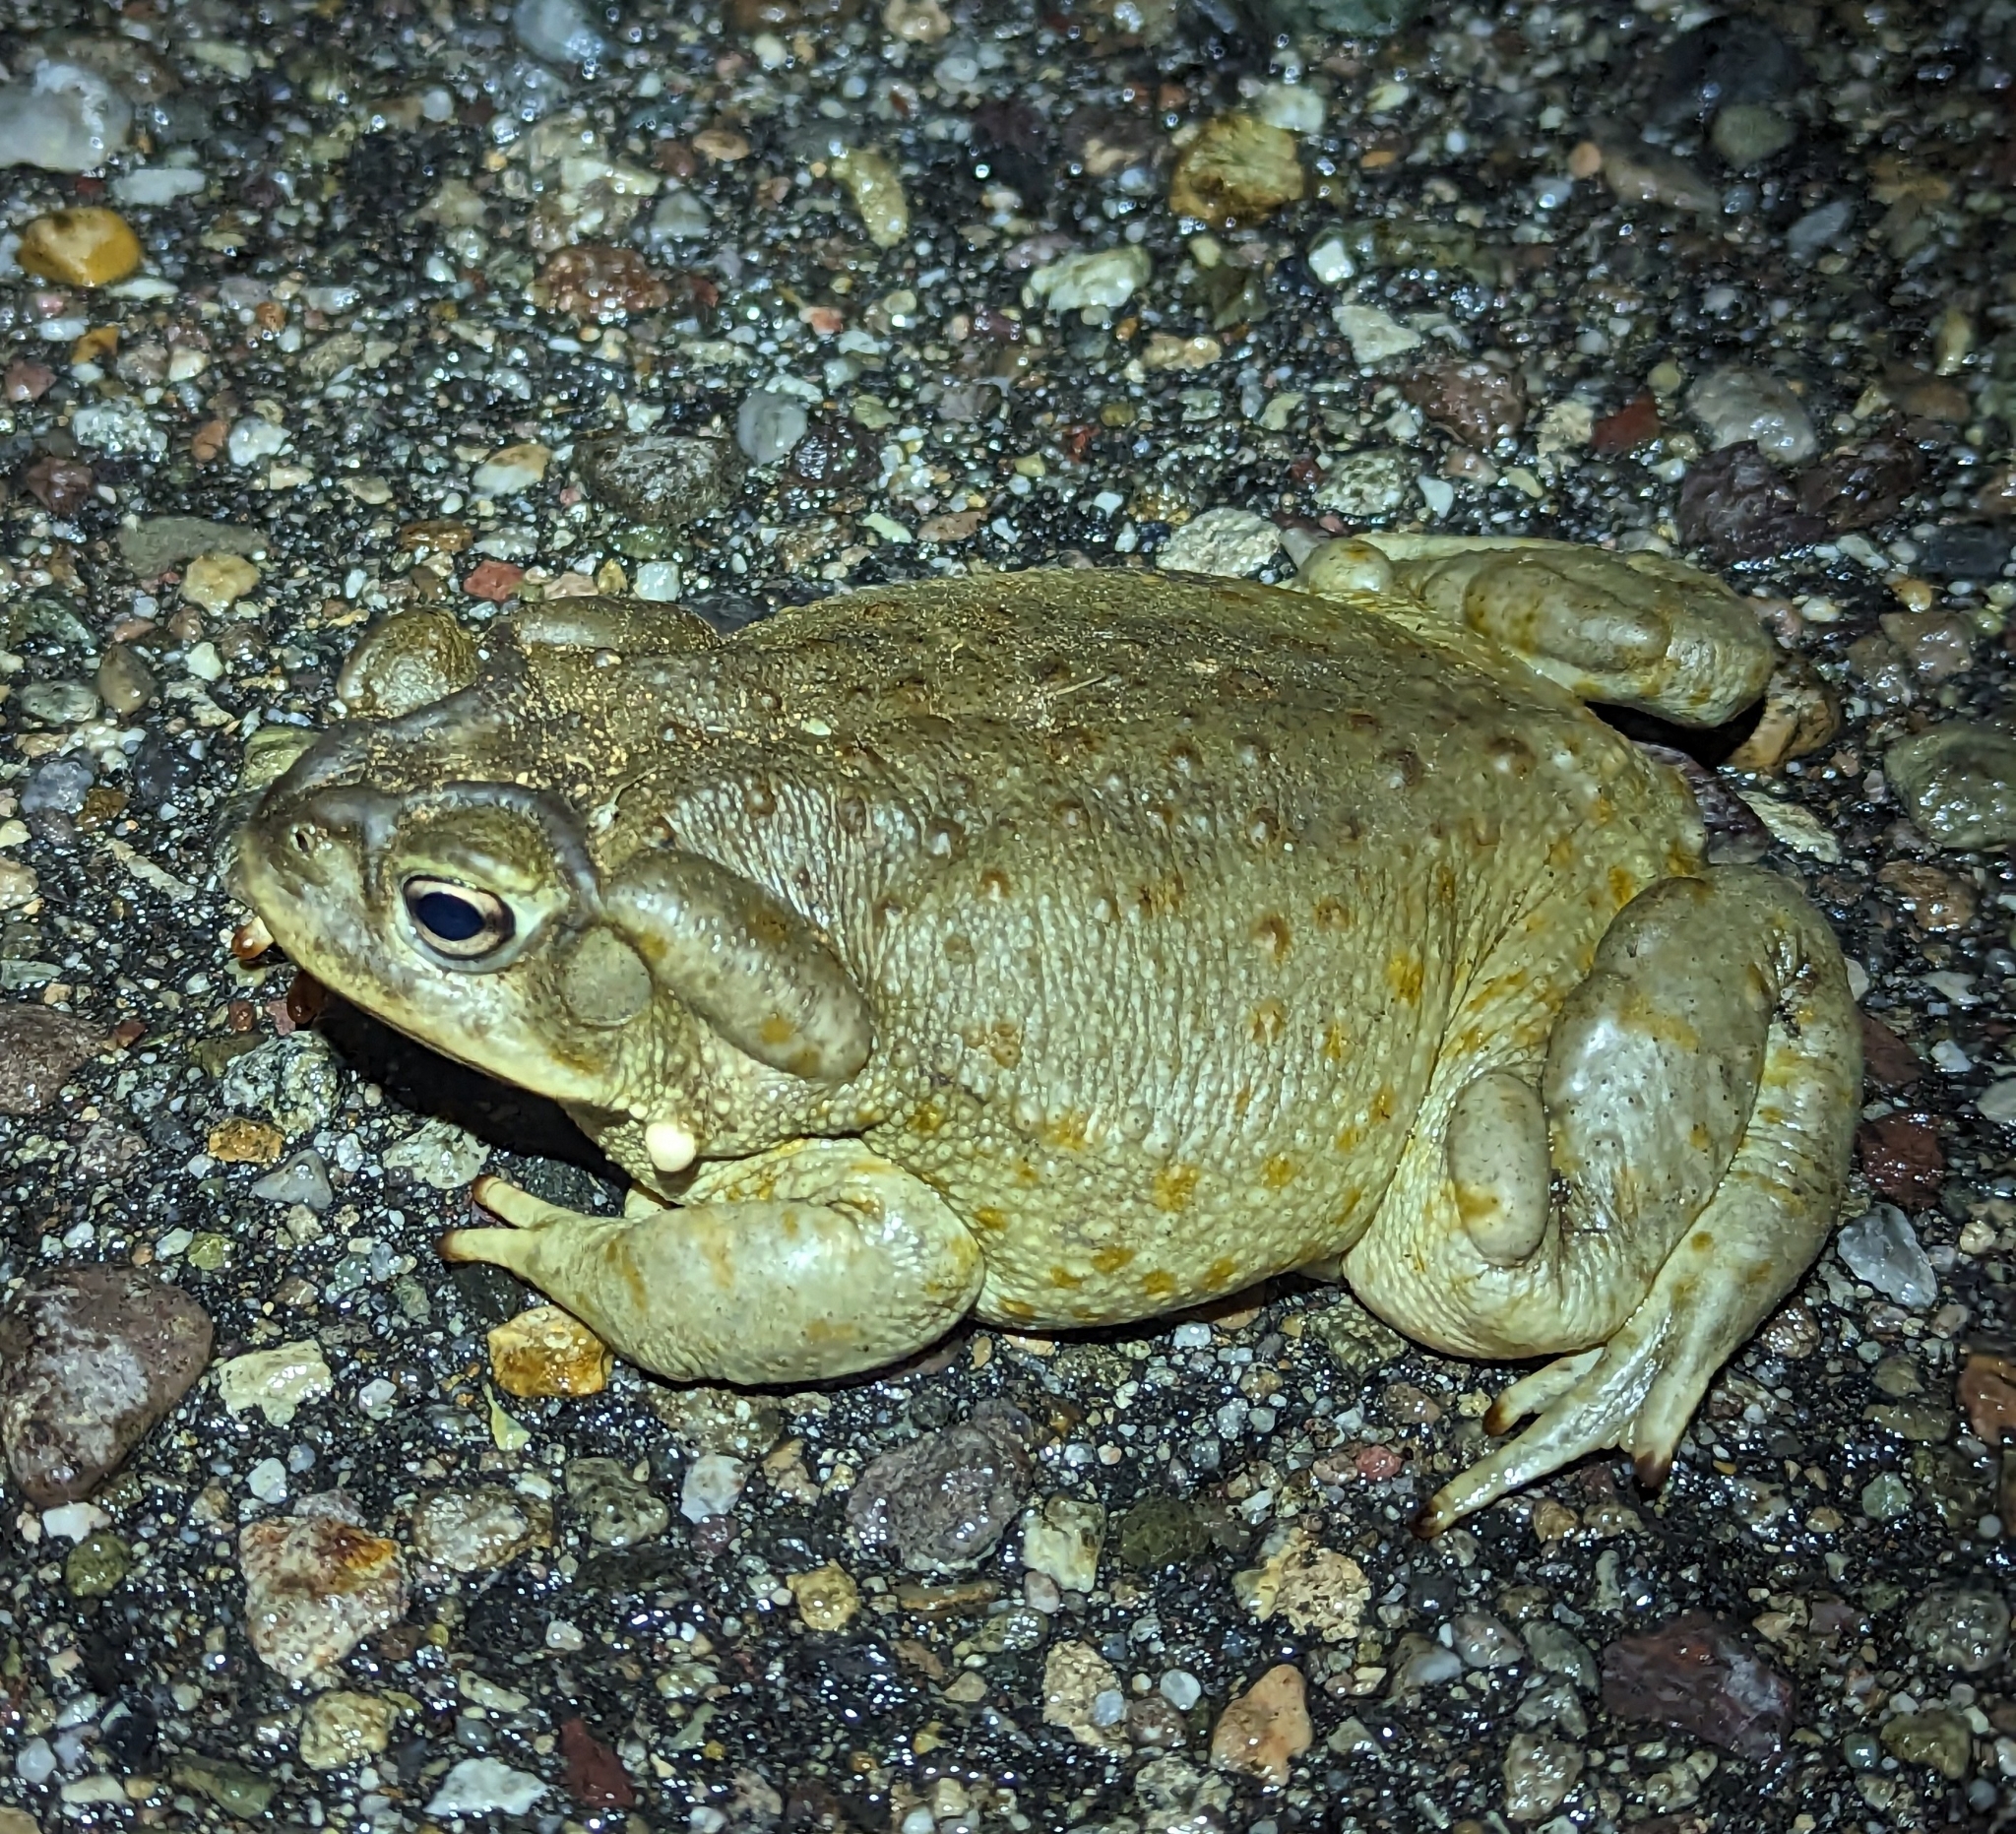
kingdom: Animalia
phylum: Chordata
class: Amphibia
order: Anura
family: Bufonidae
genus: Incilius
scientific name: Incilius alvarius
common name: Sonoran desert toad
